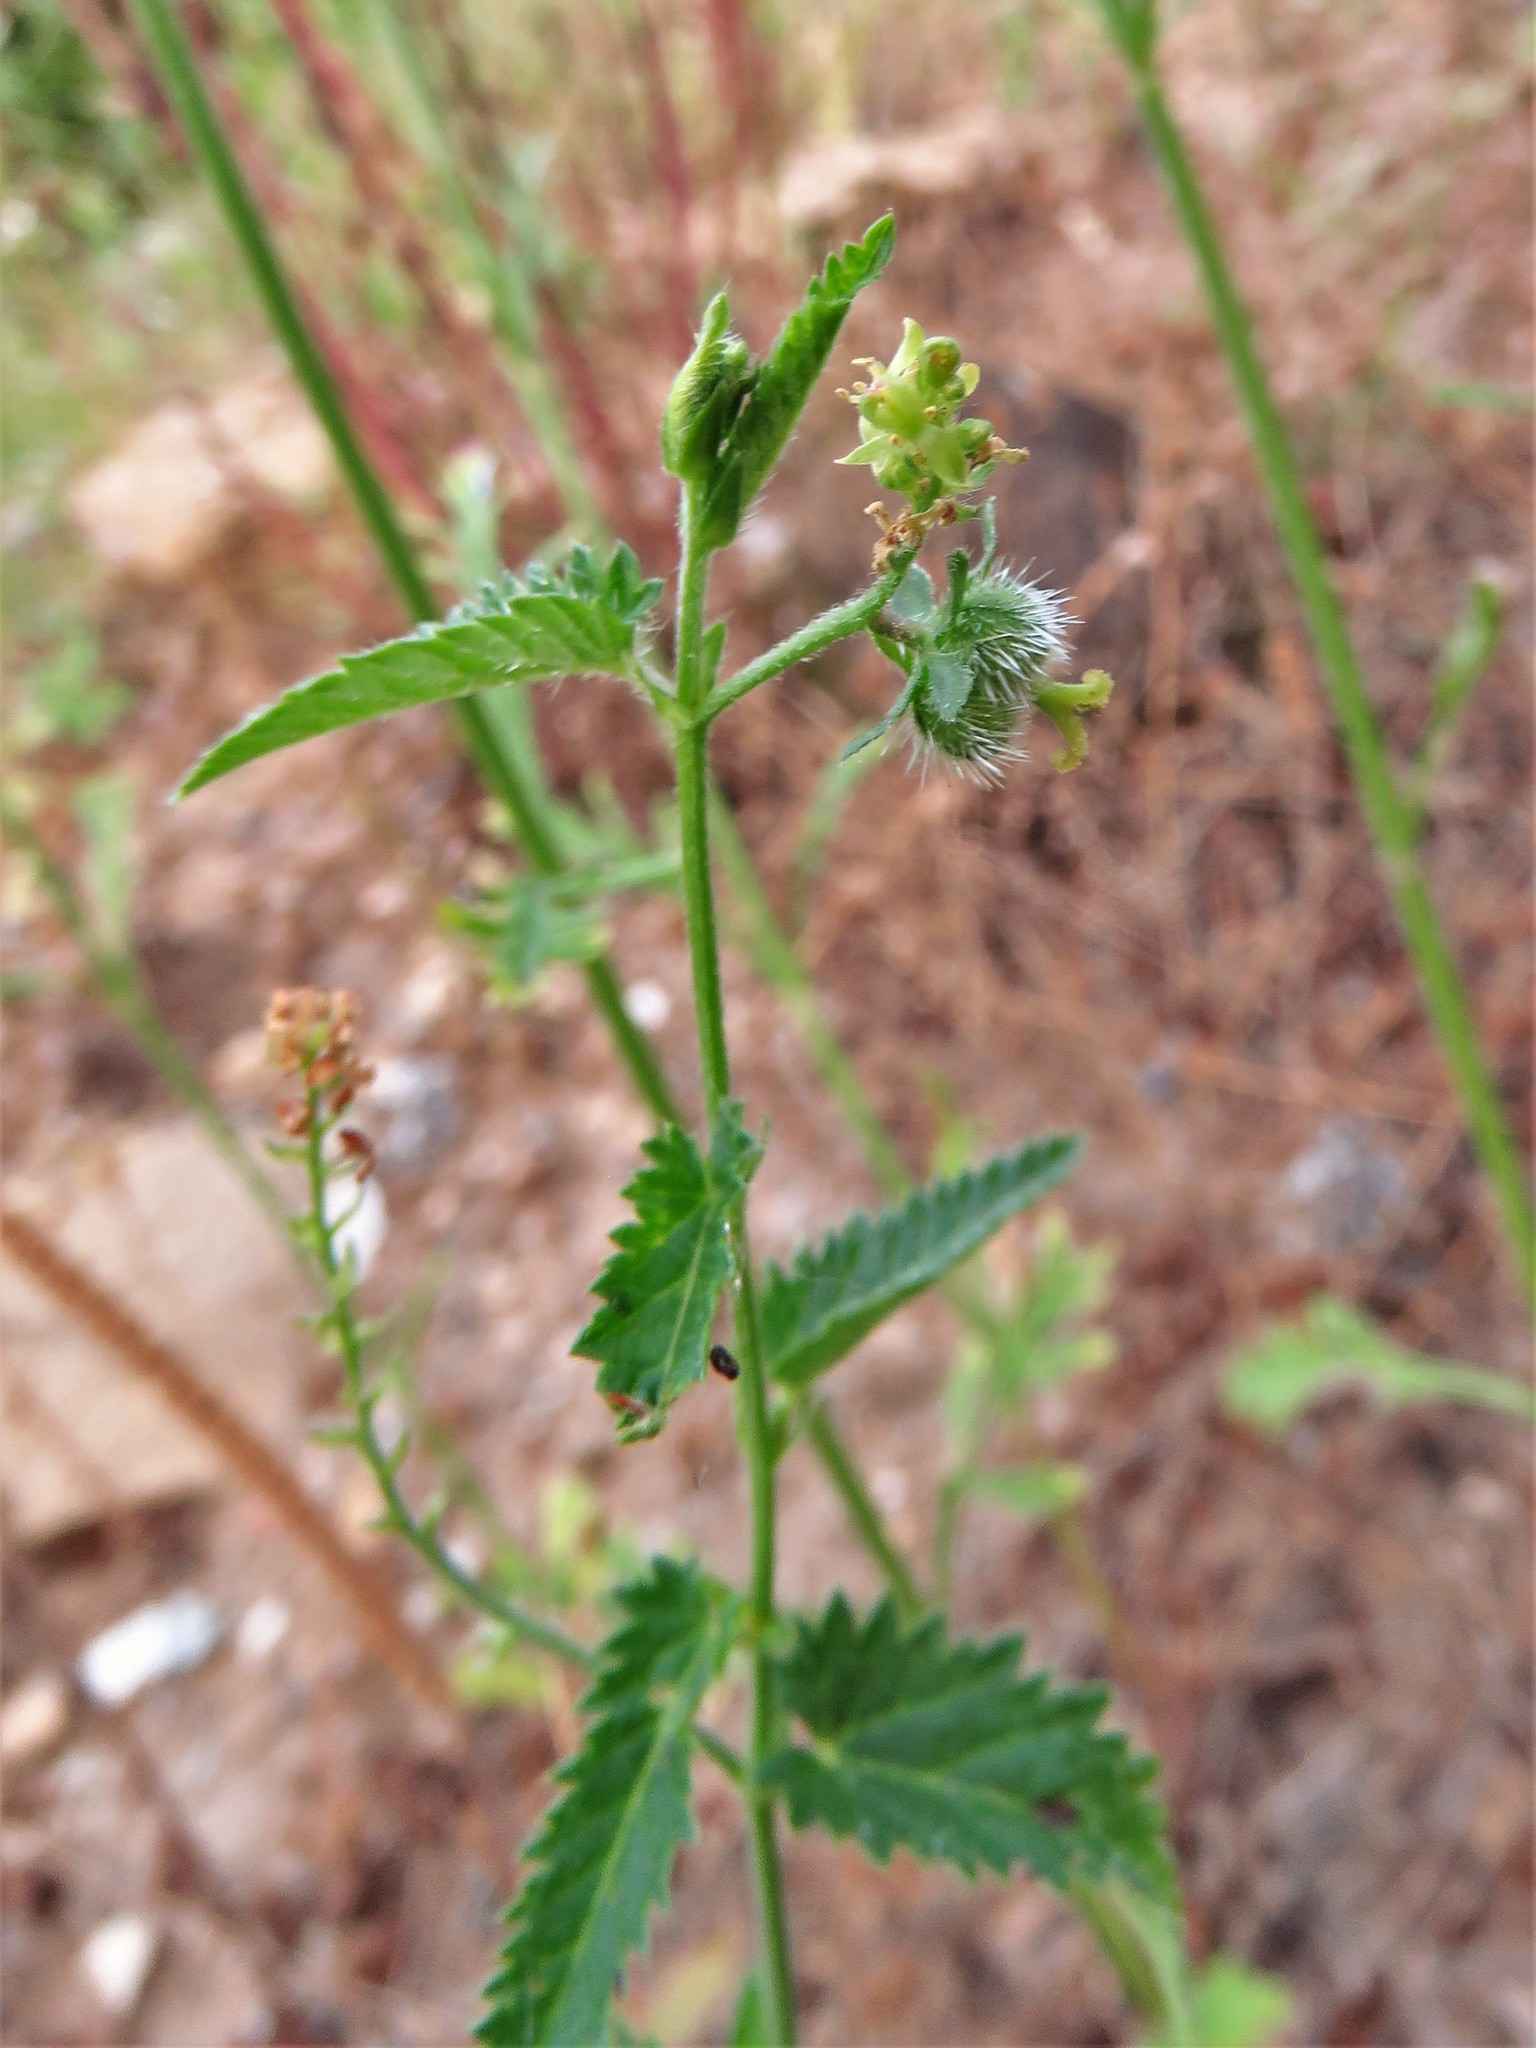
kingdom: Plantae
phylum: Tracheophyta
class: Magnoliopsida
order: Malpighiales
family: Euphorbiaceae
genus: Tragia
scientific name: Tragia urticifolia
